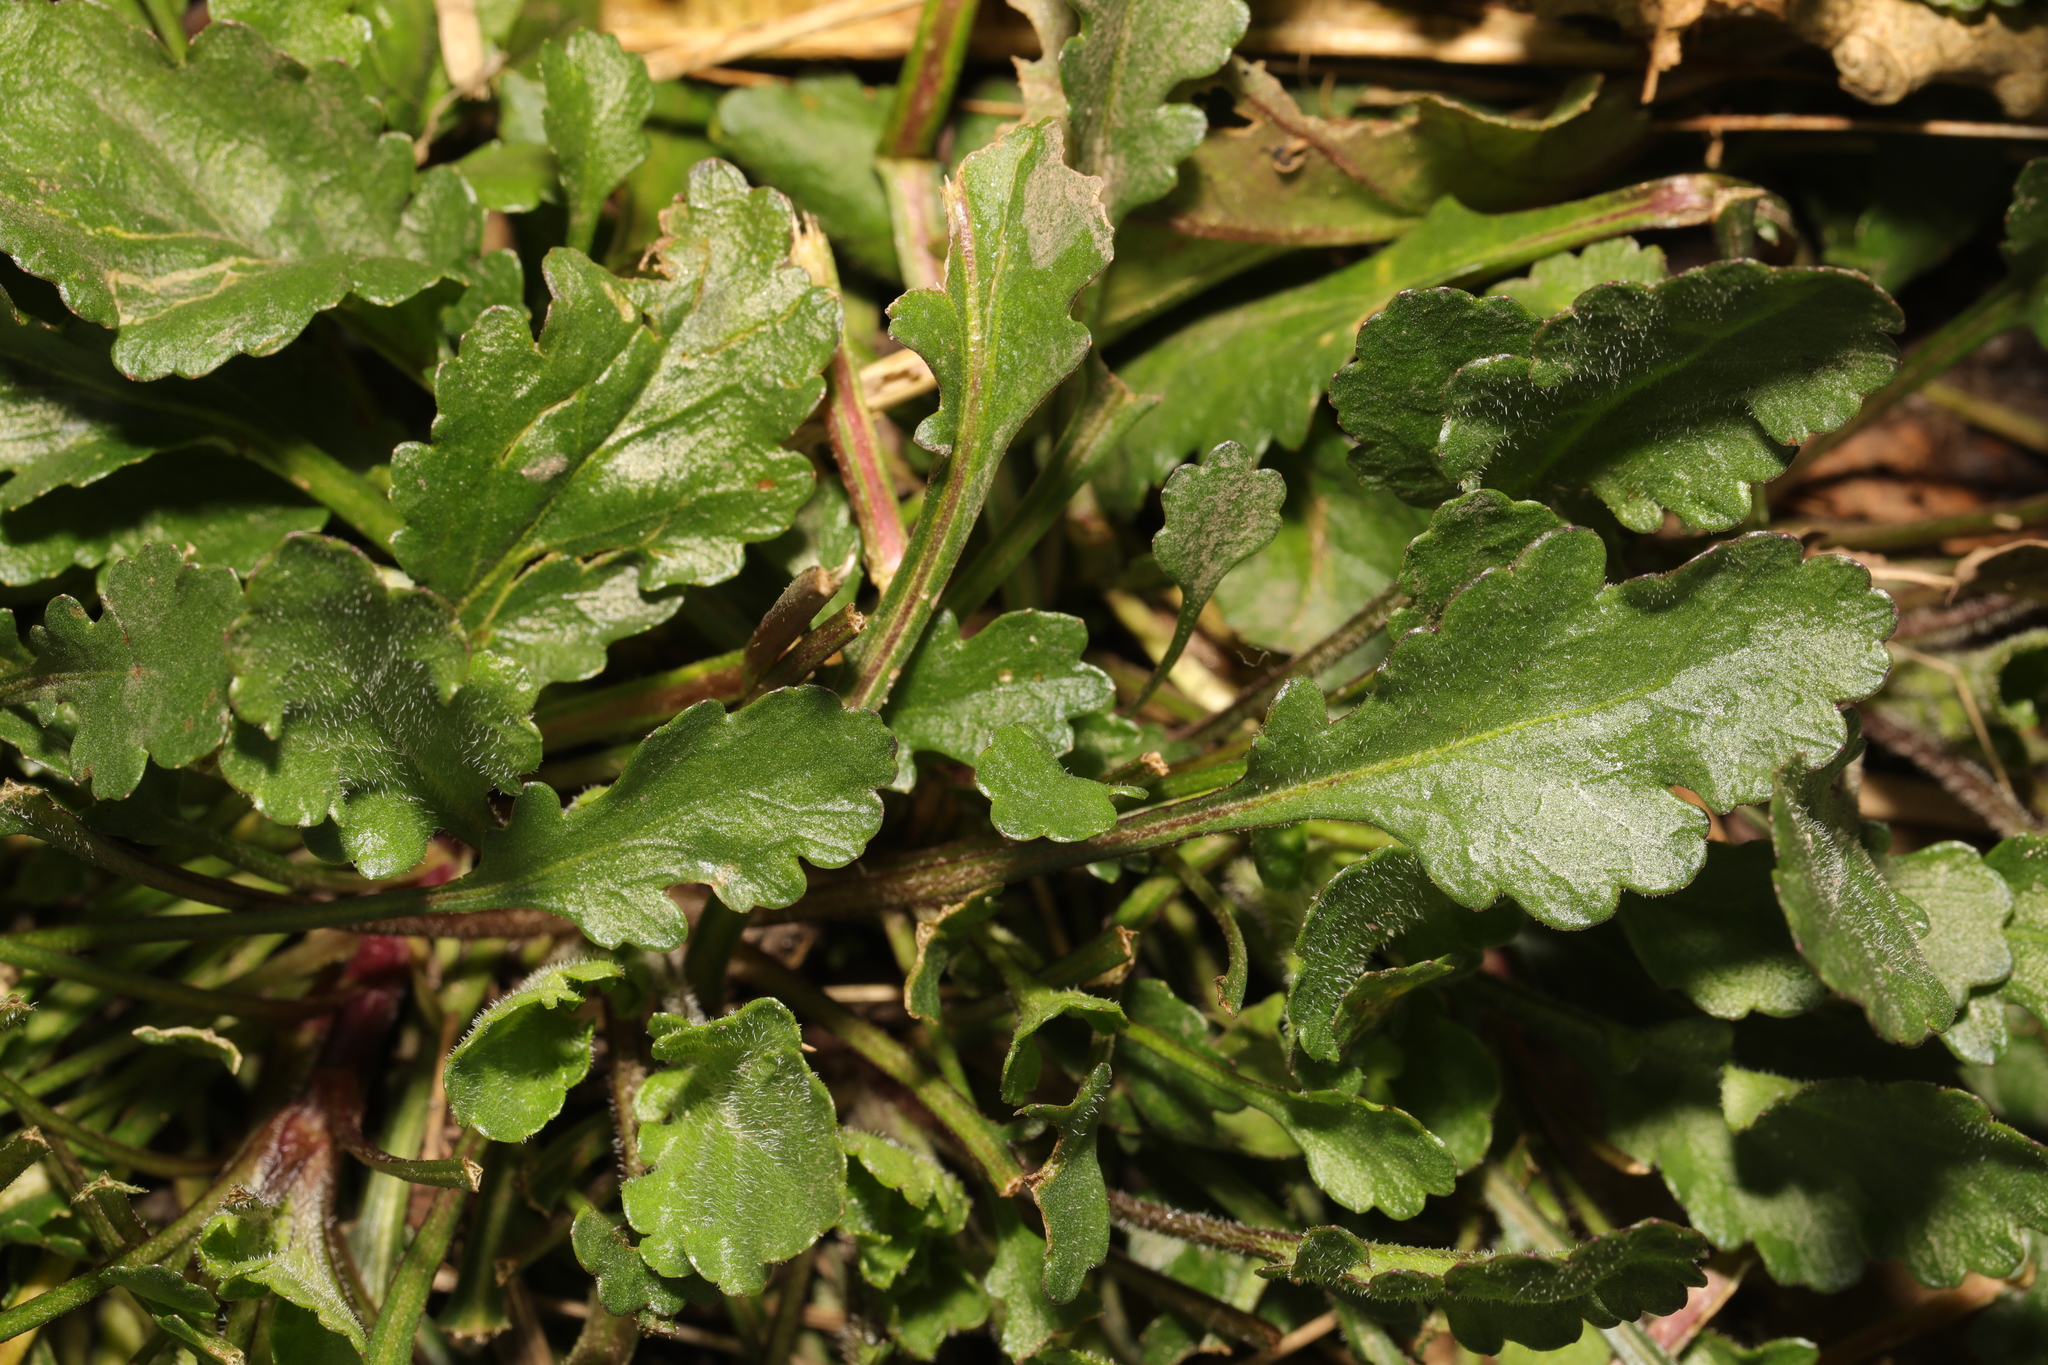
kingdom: Plantae
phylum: Tracheophyta
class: Magnoliopsida
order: Asterales
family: Asteraceae
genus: Leucanthemum
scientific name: Leucanthemum vulgare
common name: Oxeye daisy
